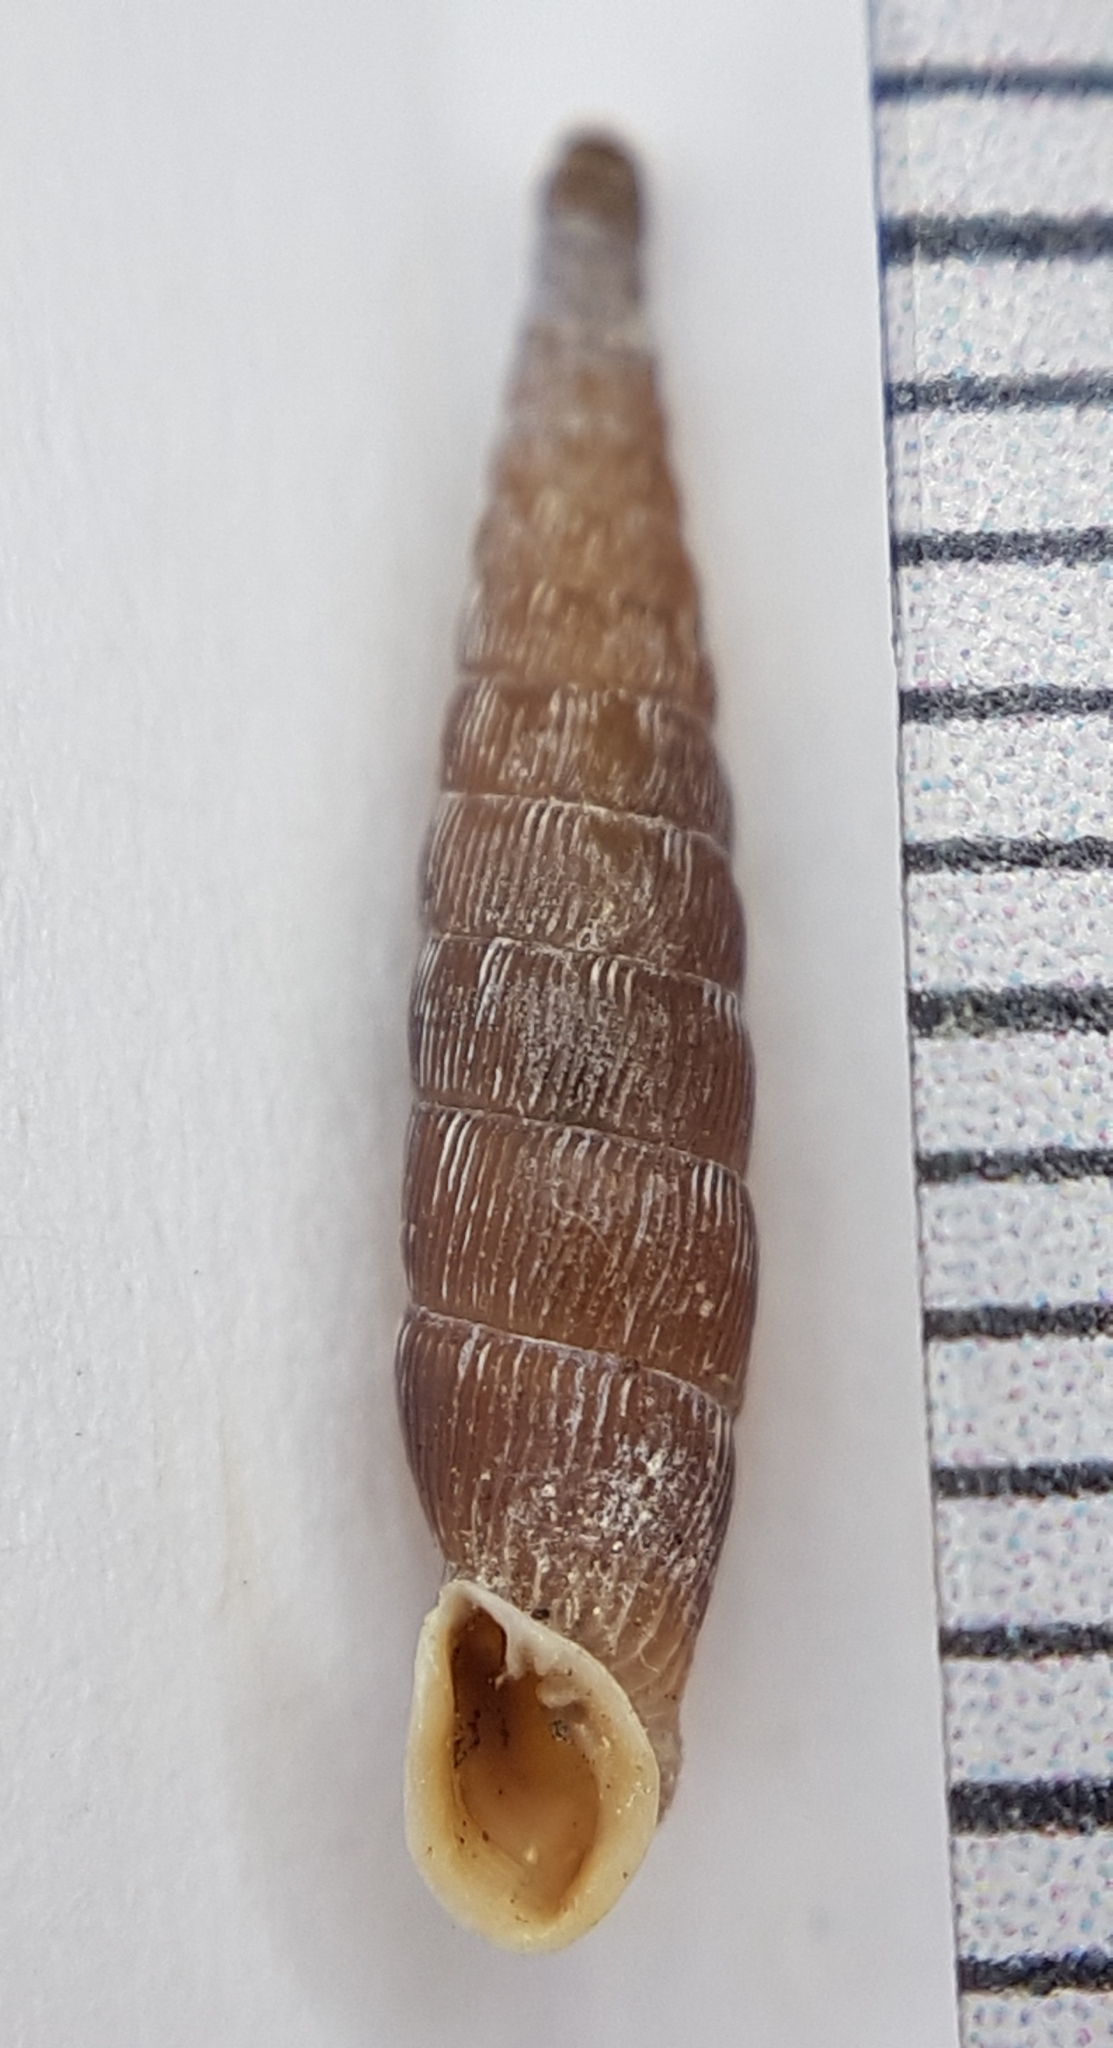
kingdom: Animalia
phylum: Mollusca
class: Gastropoda
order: Stylommatophora
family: Clausiliidae
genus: Clausilia
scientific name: Clausilia bidentata
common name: Two-toothed door snail
